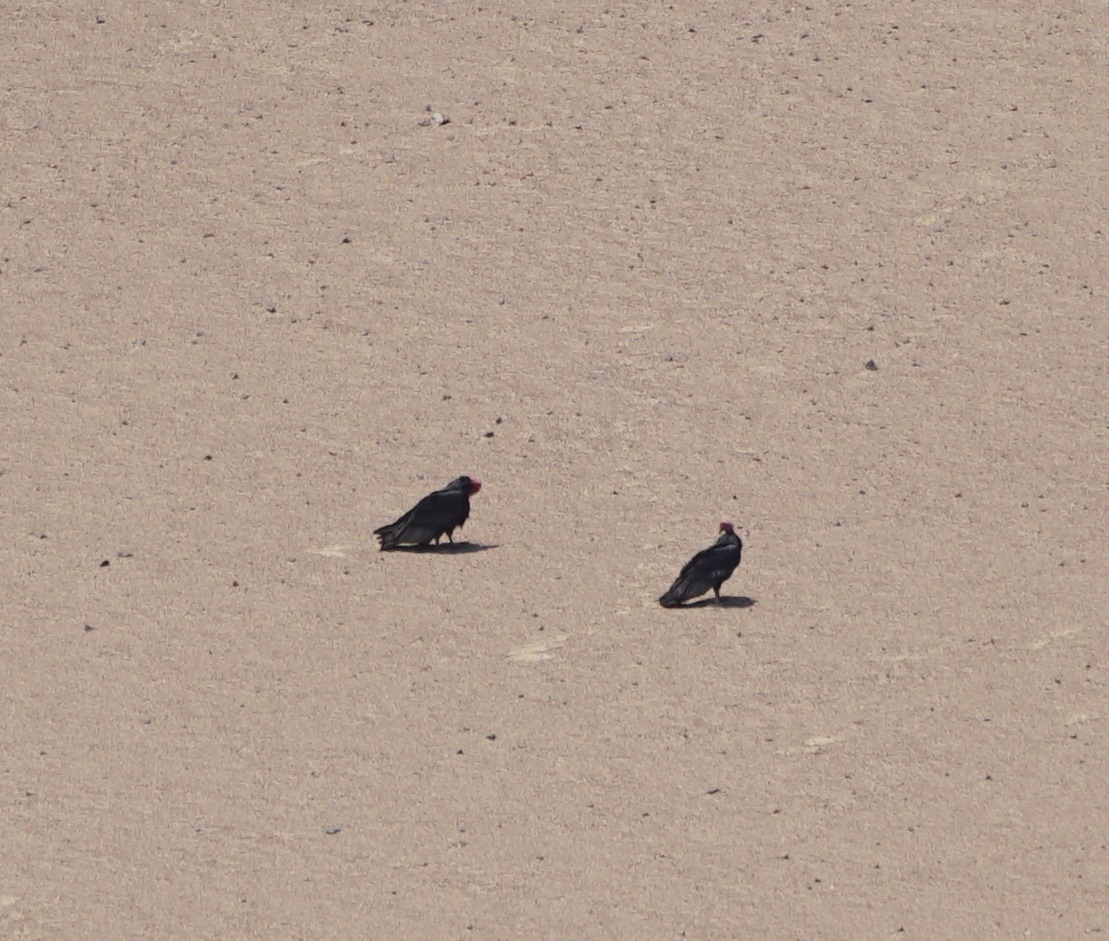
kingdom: Animalia
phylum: Chordata
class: Aves
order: Accipitriformes
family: Cathartidae
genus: Cathartes
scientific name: Cathartes aura
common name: Turkey vulture
